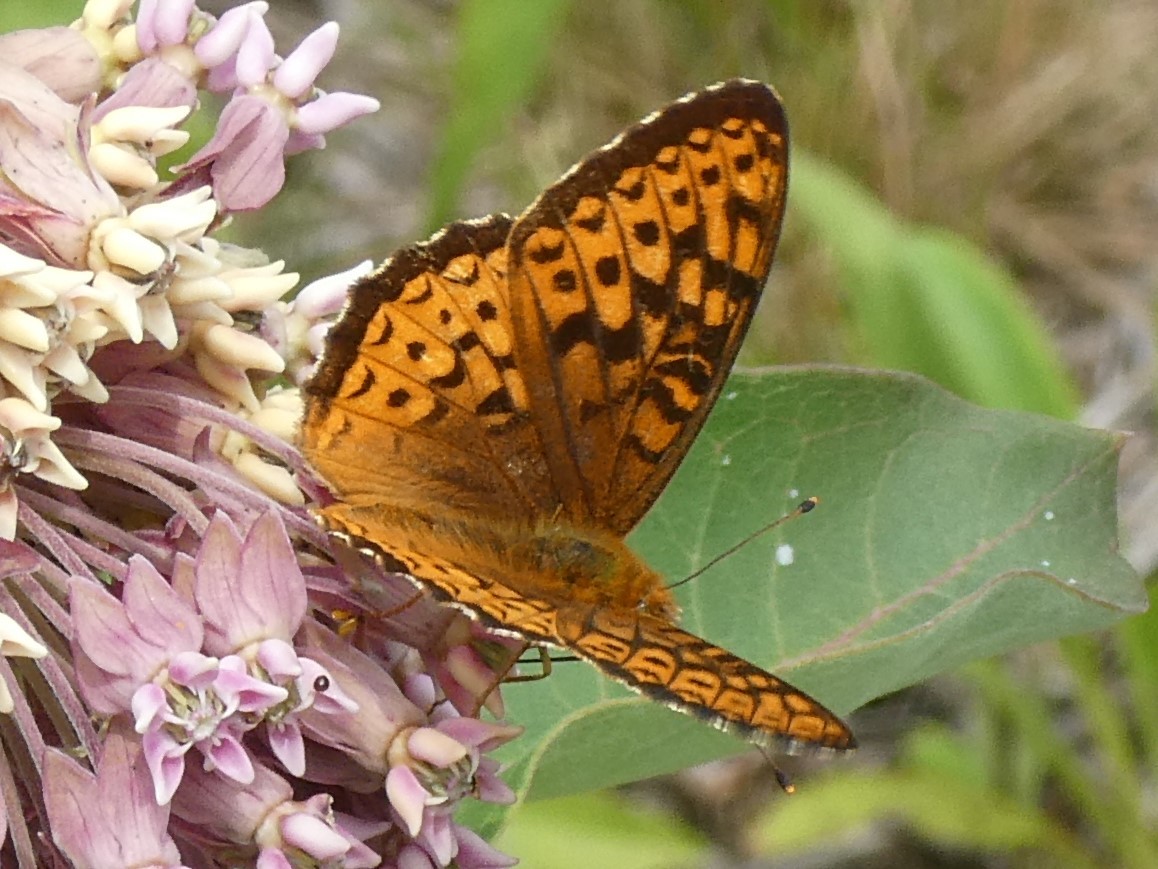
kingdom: Animalia
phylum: Arthropoda
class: Insecta
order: Lepidoptera
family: Nymphalidae
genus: Speyeria
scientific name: Speyeria atlantis
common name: Atlantis fritillary
